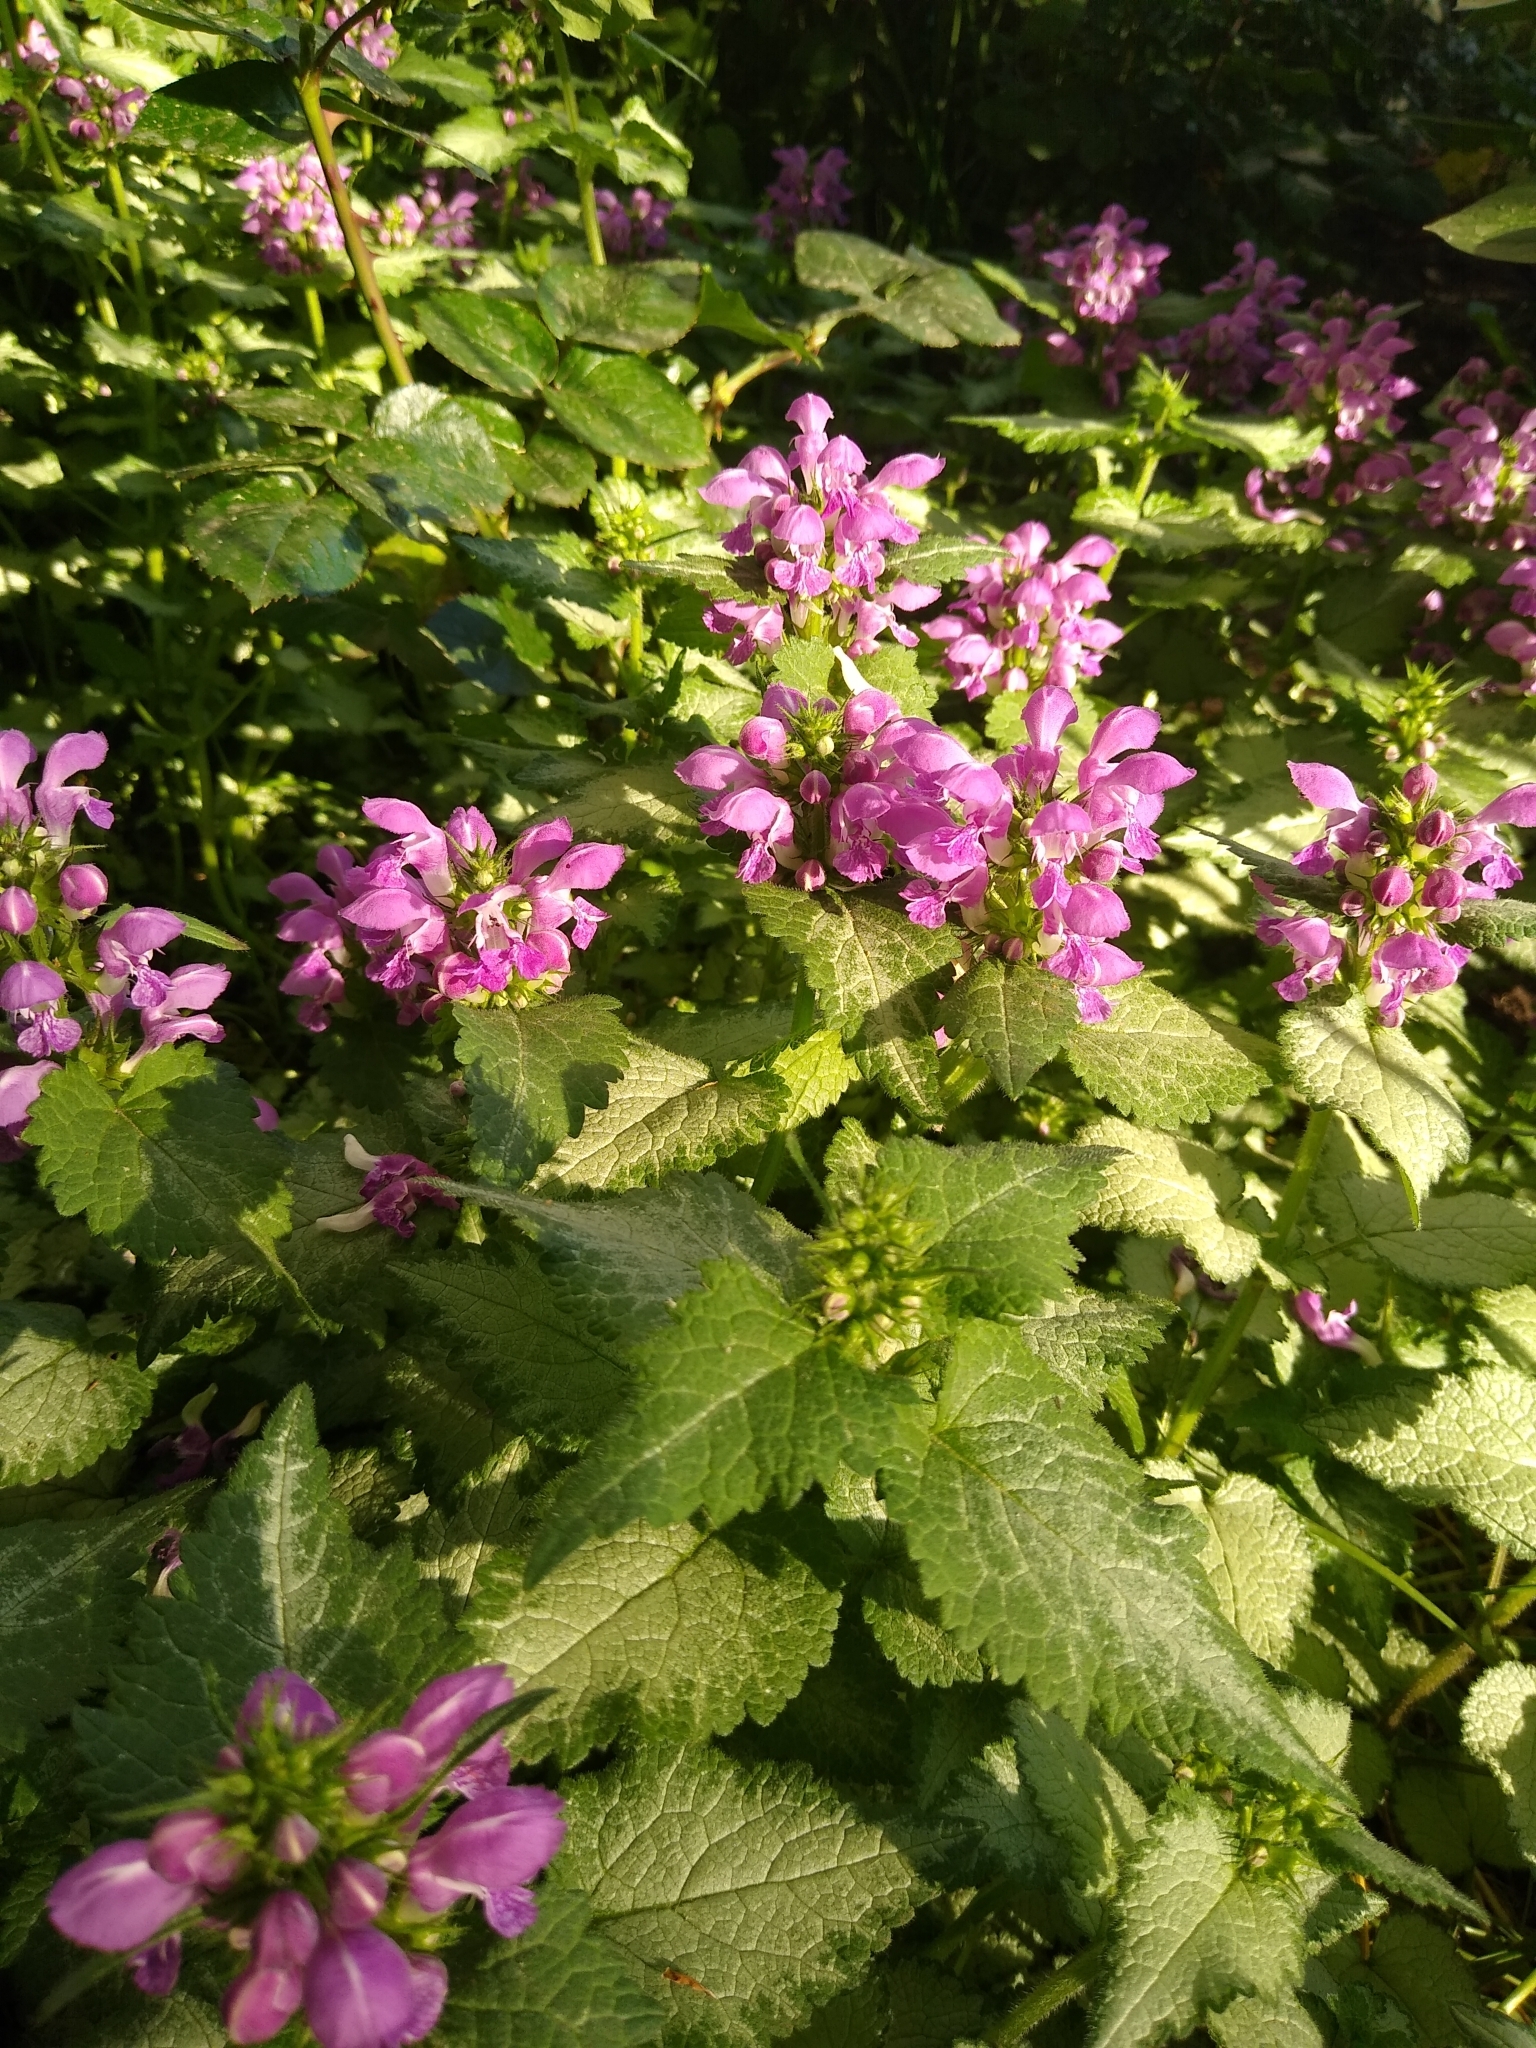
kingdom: Plantae
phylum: Tracheophyta
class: Magnoliopsida
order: Lamiales
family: Lamiaceae
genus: Lamium
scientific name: Lamium maculatum
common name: Spotted dead-nettle
